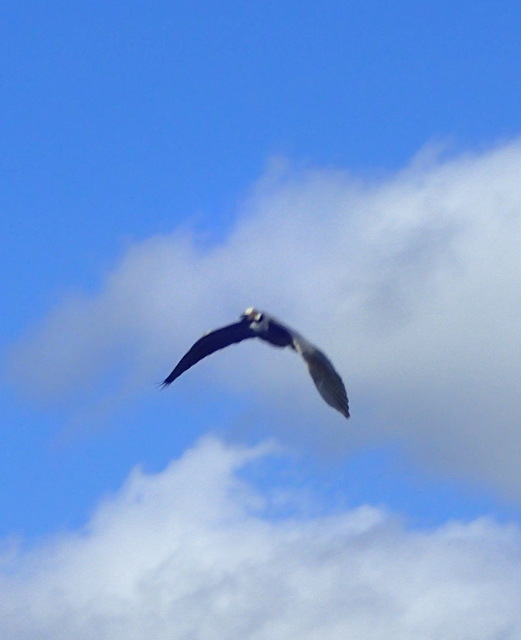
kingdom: Animalia
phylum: Chordata
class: Aves
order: Pelecaniformes
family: Ardeidae
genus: Nyctanassa
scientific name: Nyctanassa violacea
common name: Yellow-crowned night heron
